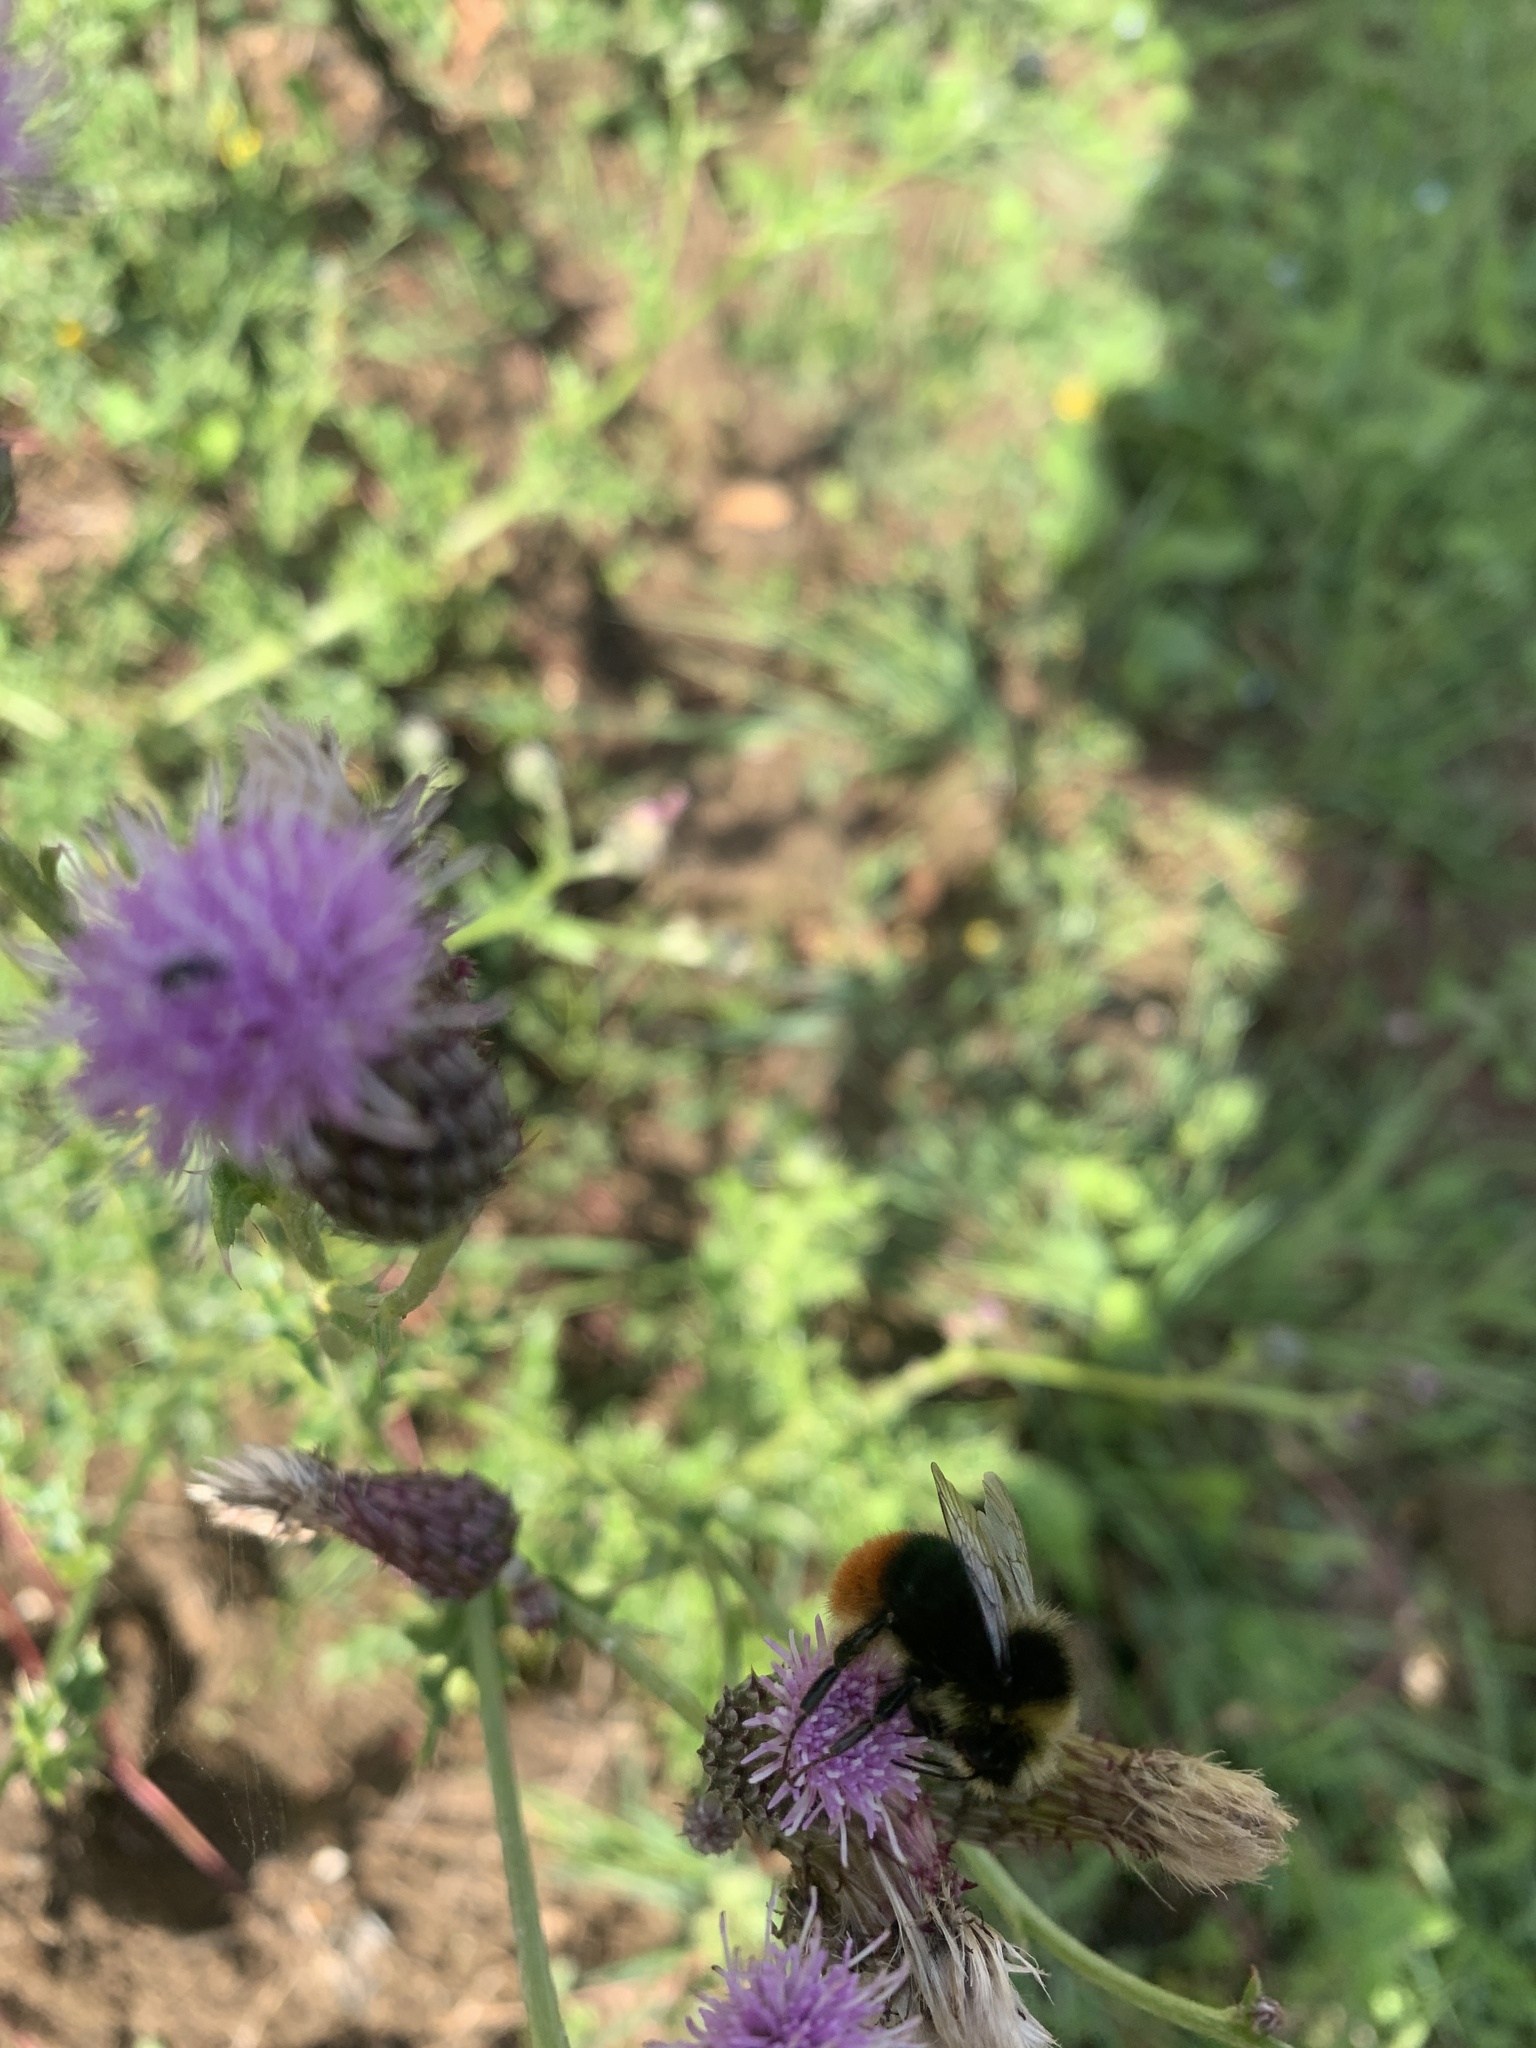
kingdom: Animalia
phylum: Arthropoda
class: Insecta
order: Hymenoptera
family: Apidae
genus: Bombus
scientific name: Bombus lapidarius
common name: Large red-tailed humble-bee
